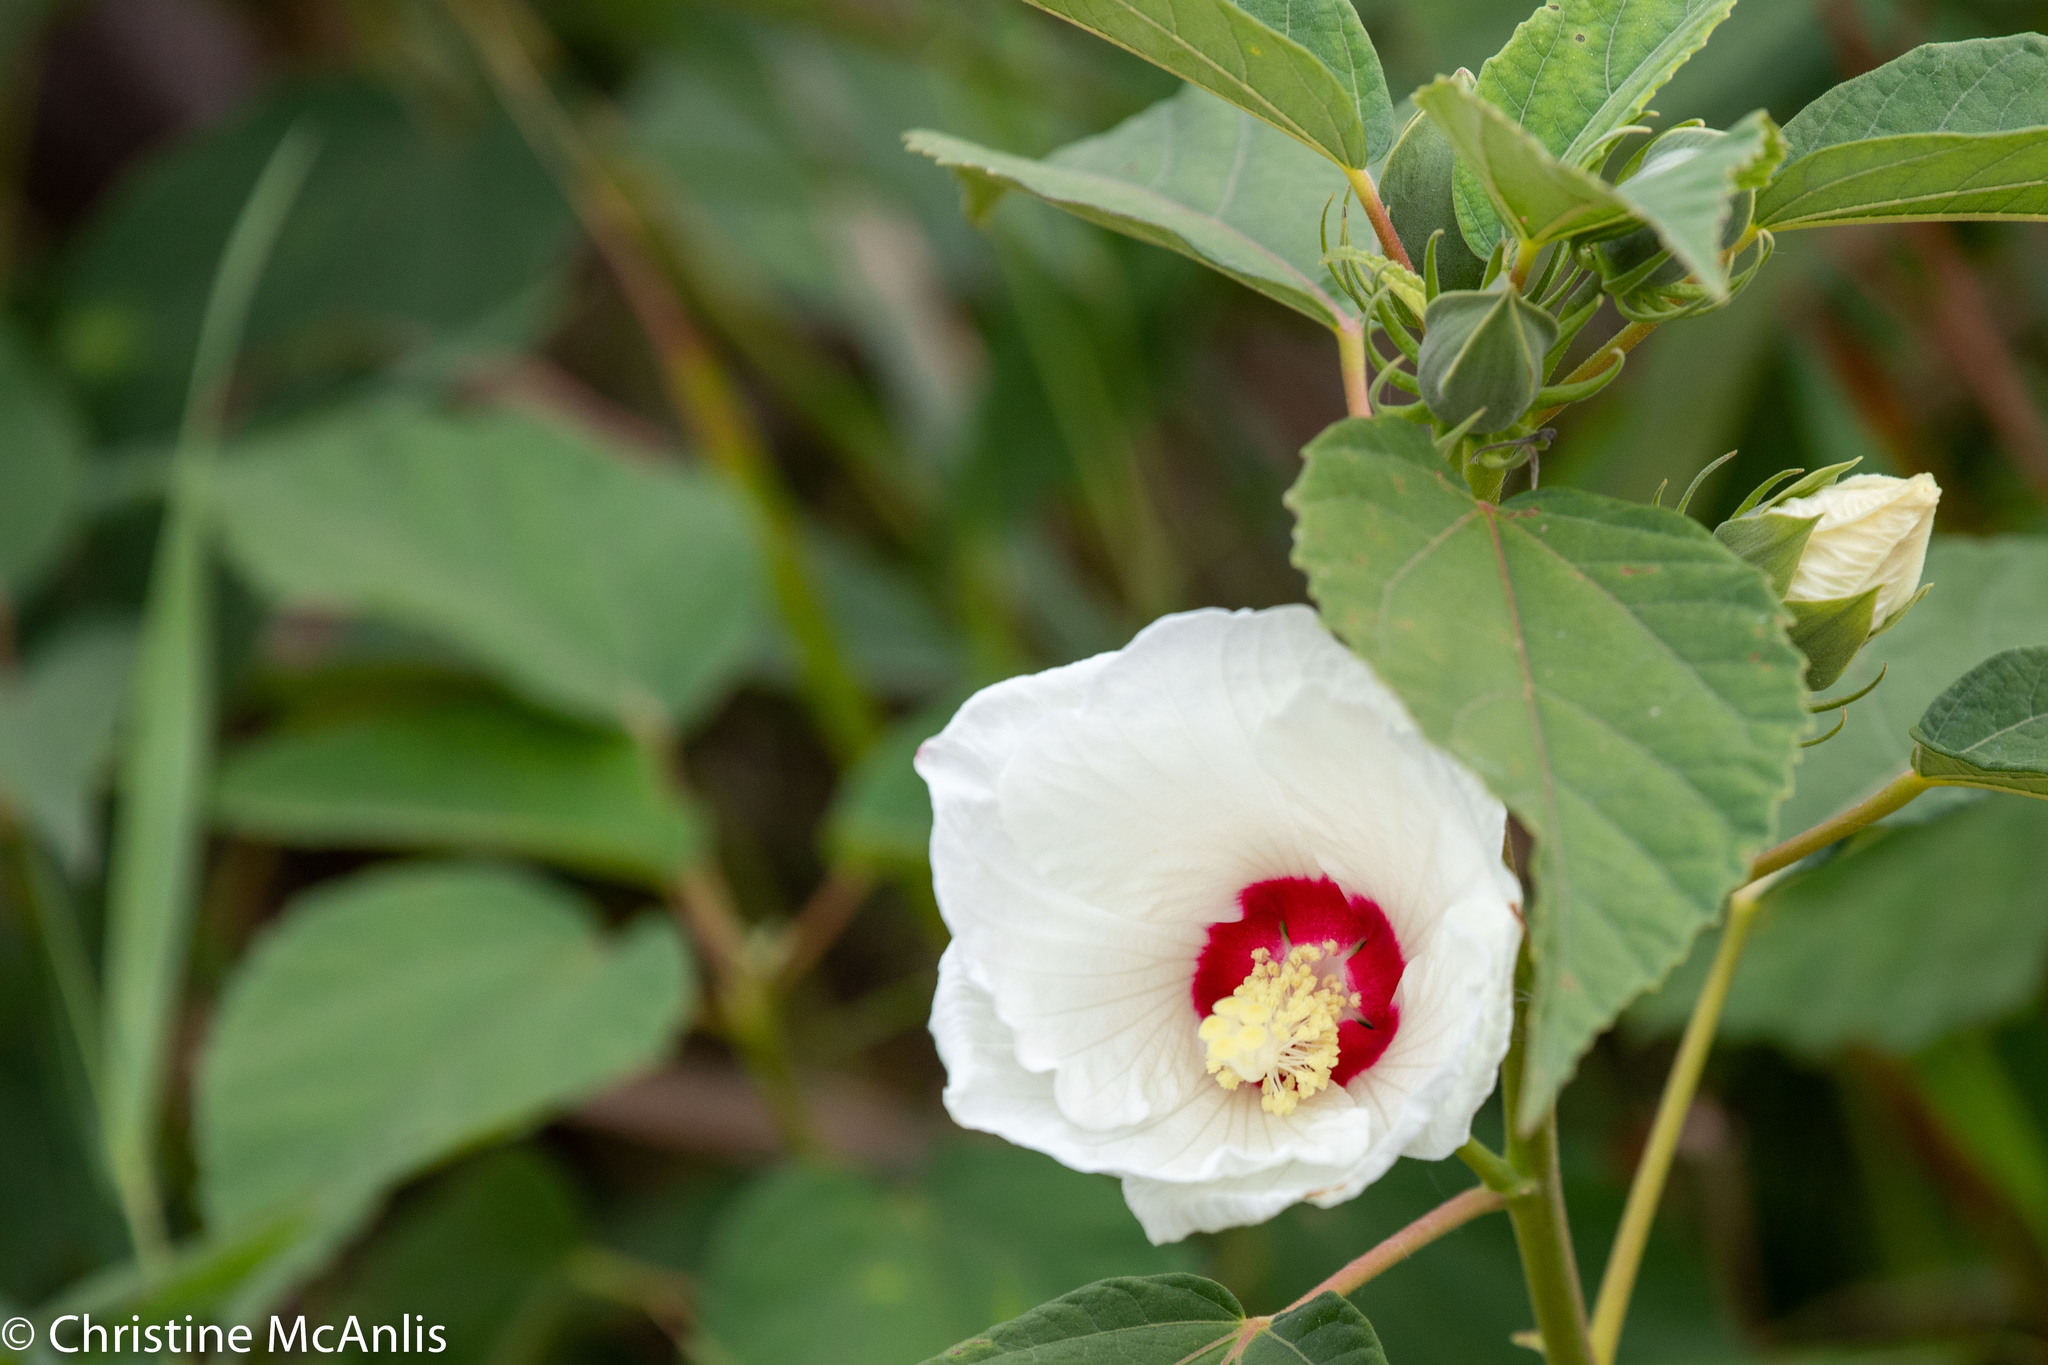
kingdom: Plantae
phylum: Tracheophyta
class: Magnoliopsida
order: Malvales
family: Malvaceae
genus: Hibiscus
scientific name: Hibiscus moscheutos
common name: Common rose-mallow
